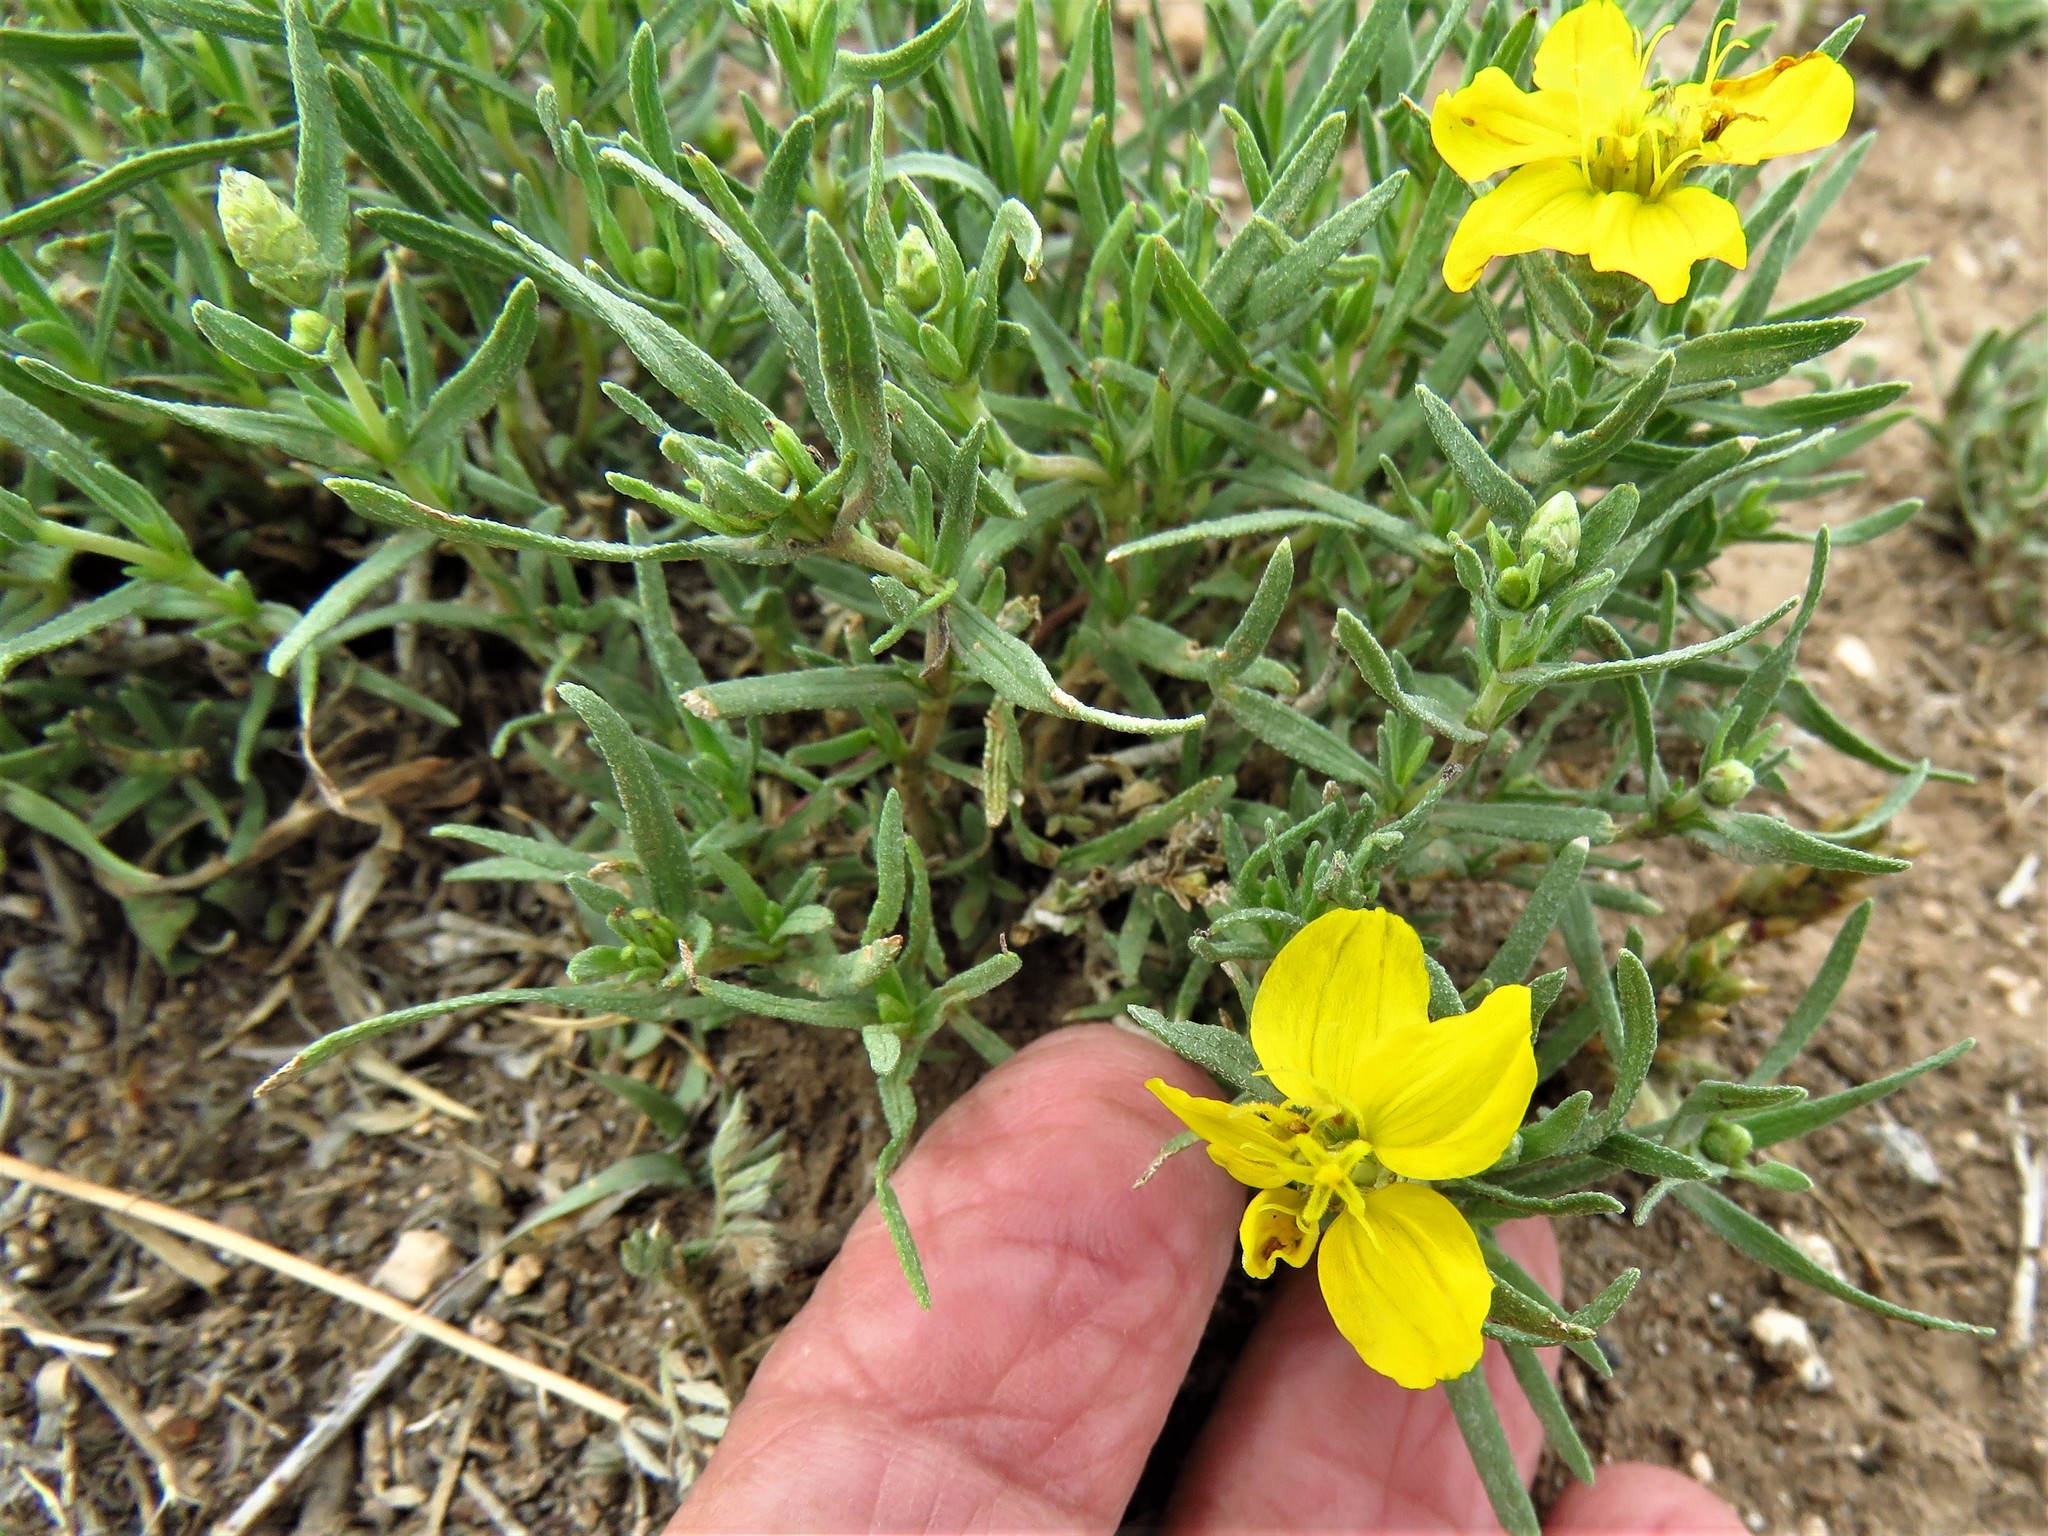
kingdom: Plantae
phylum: Tracheophyta
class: Magnoliopsida
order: Asterales
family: Asteraceae
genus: Zinnia
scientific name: Zinnia grandiflora
